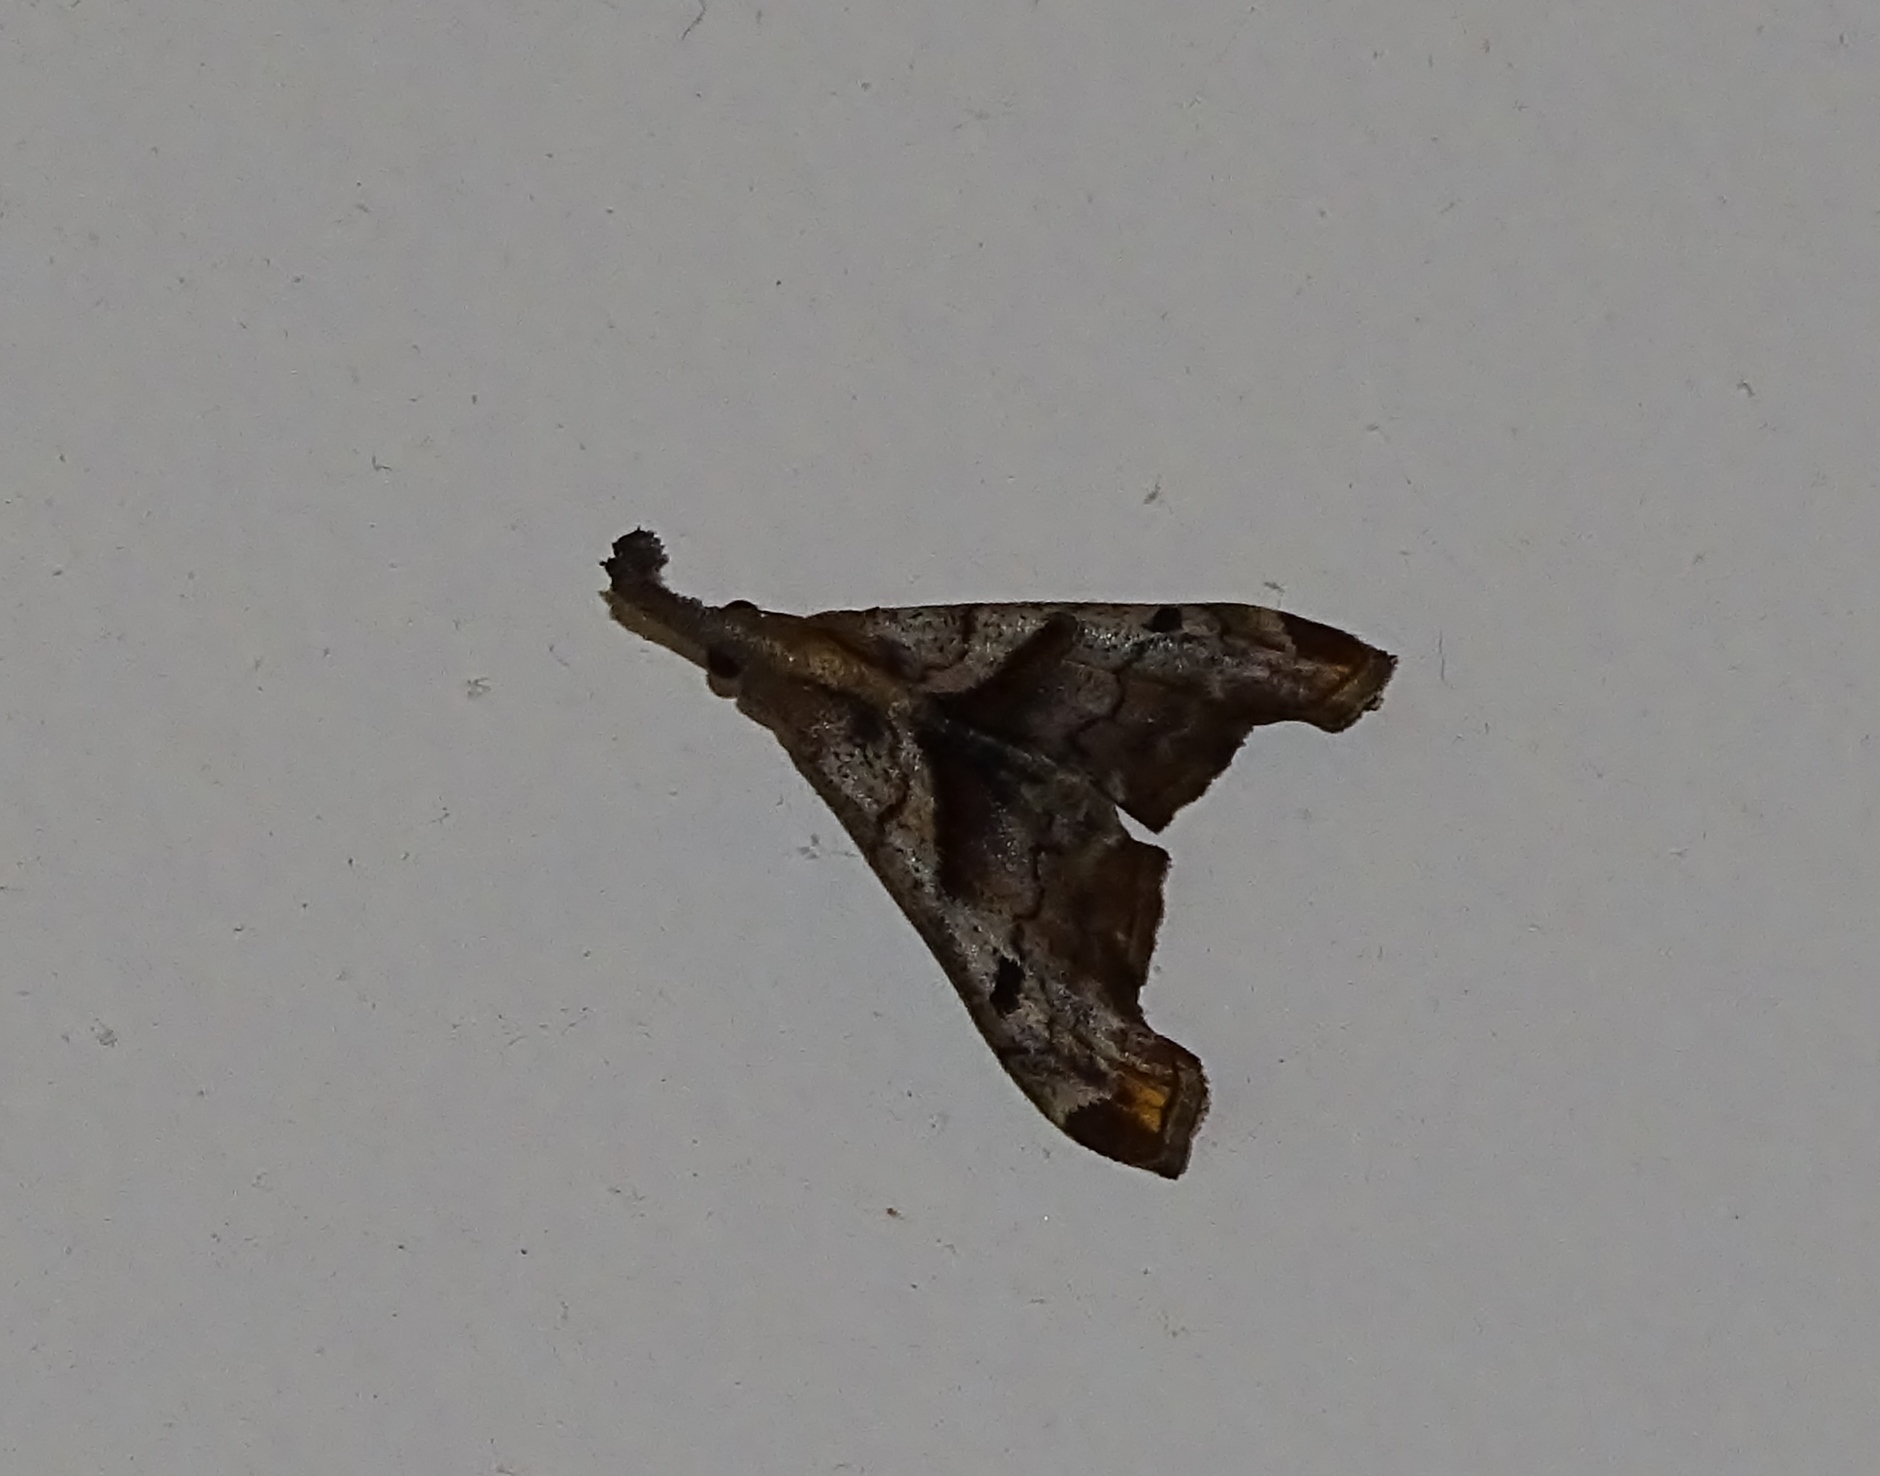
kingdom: Animalia
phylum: Arthropoda
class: Insecta
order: Lepidoptera
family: Erebidae
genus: Palthis
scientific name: Palthis angulalis
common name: Dark-spotted palthis moth
